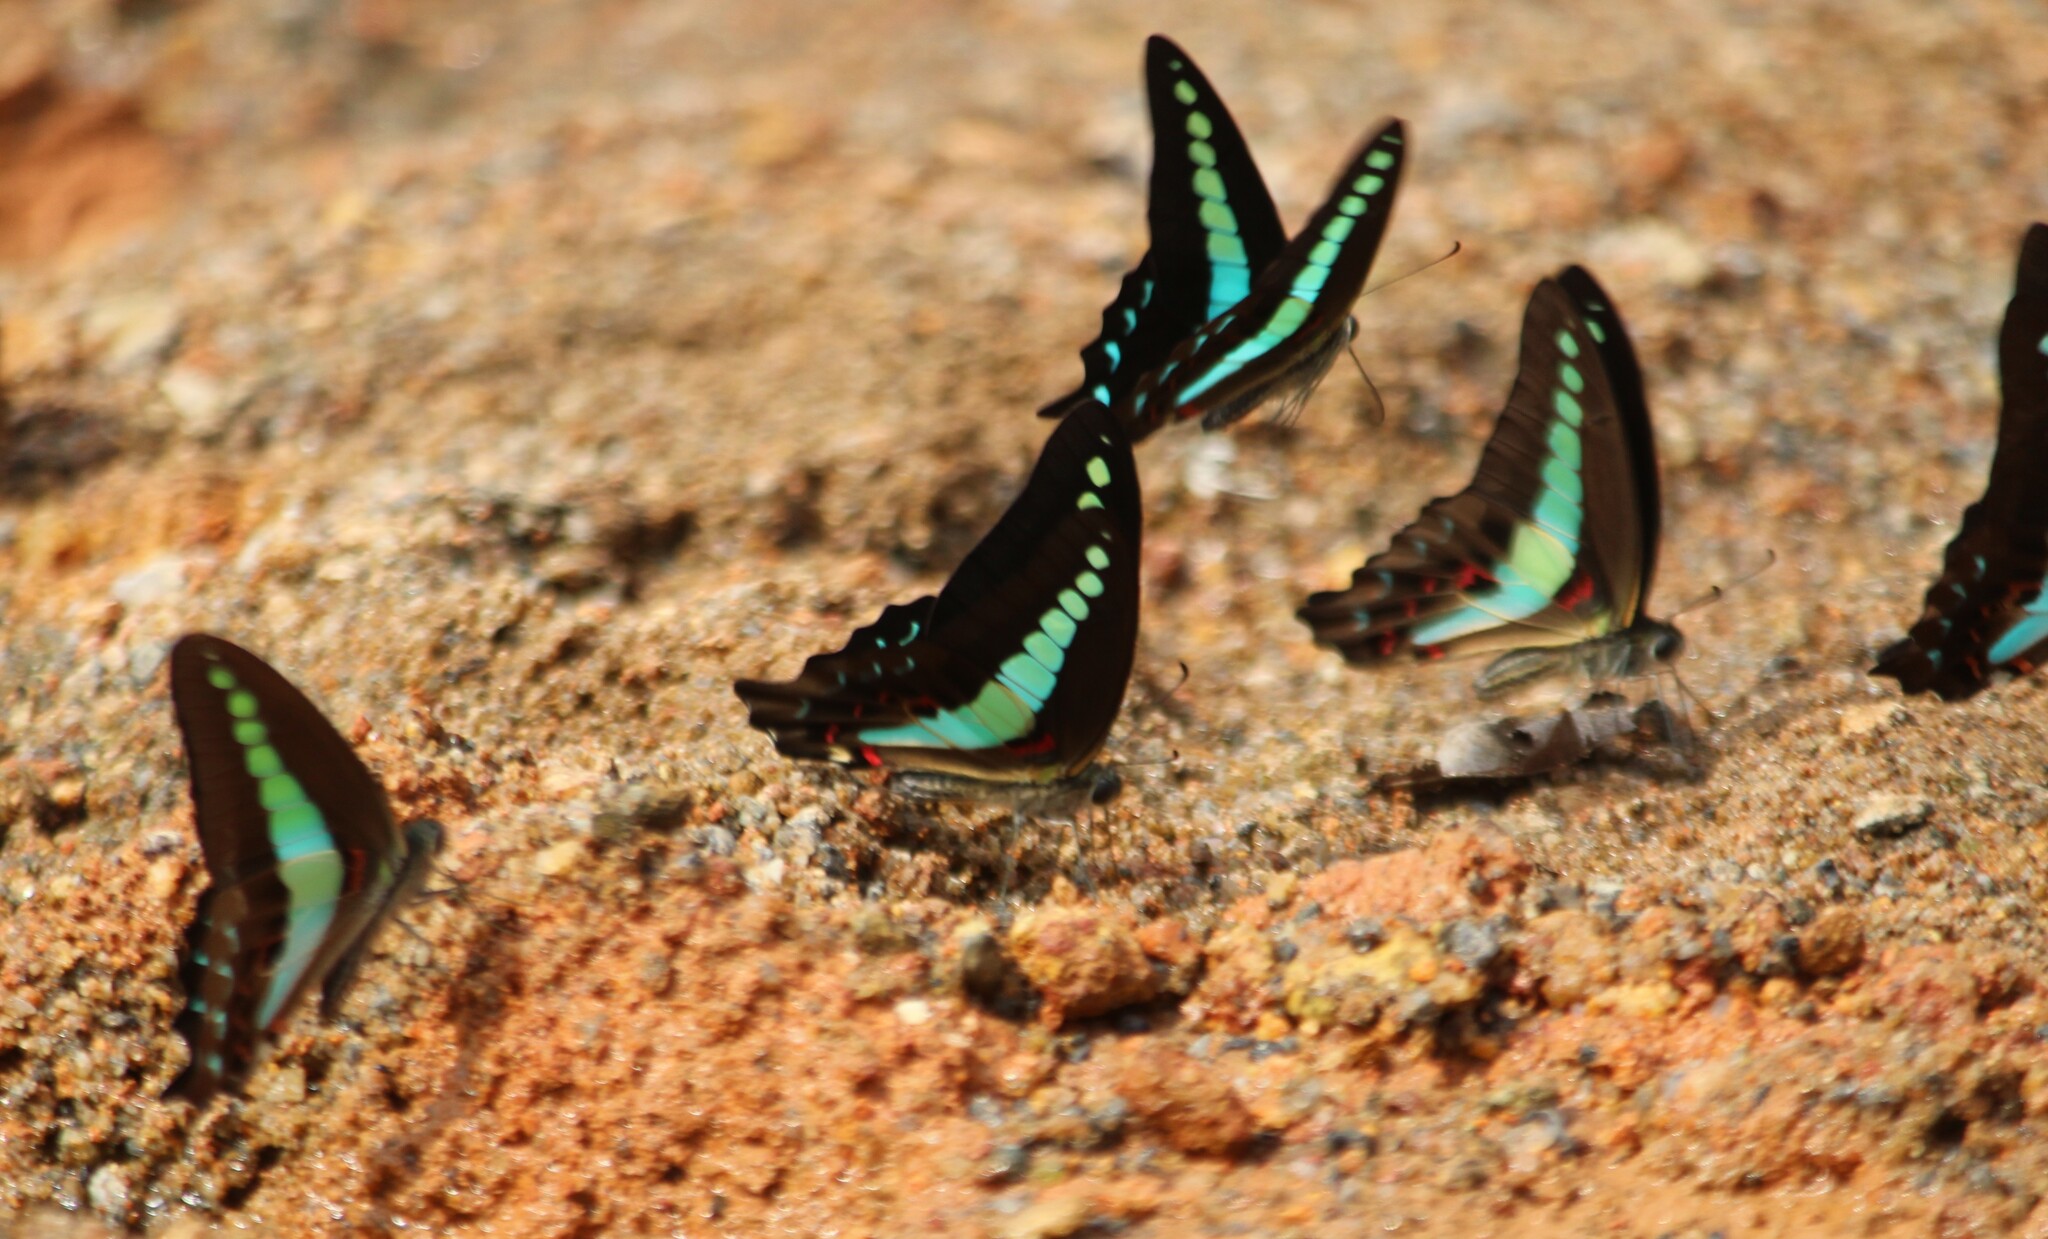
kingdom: Animalia
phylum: Arthropoda
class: Insecta
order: Lepidoptera
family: Papilionidae
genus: Graphium
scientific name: Graphium
